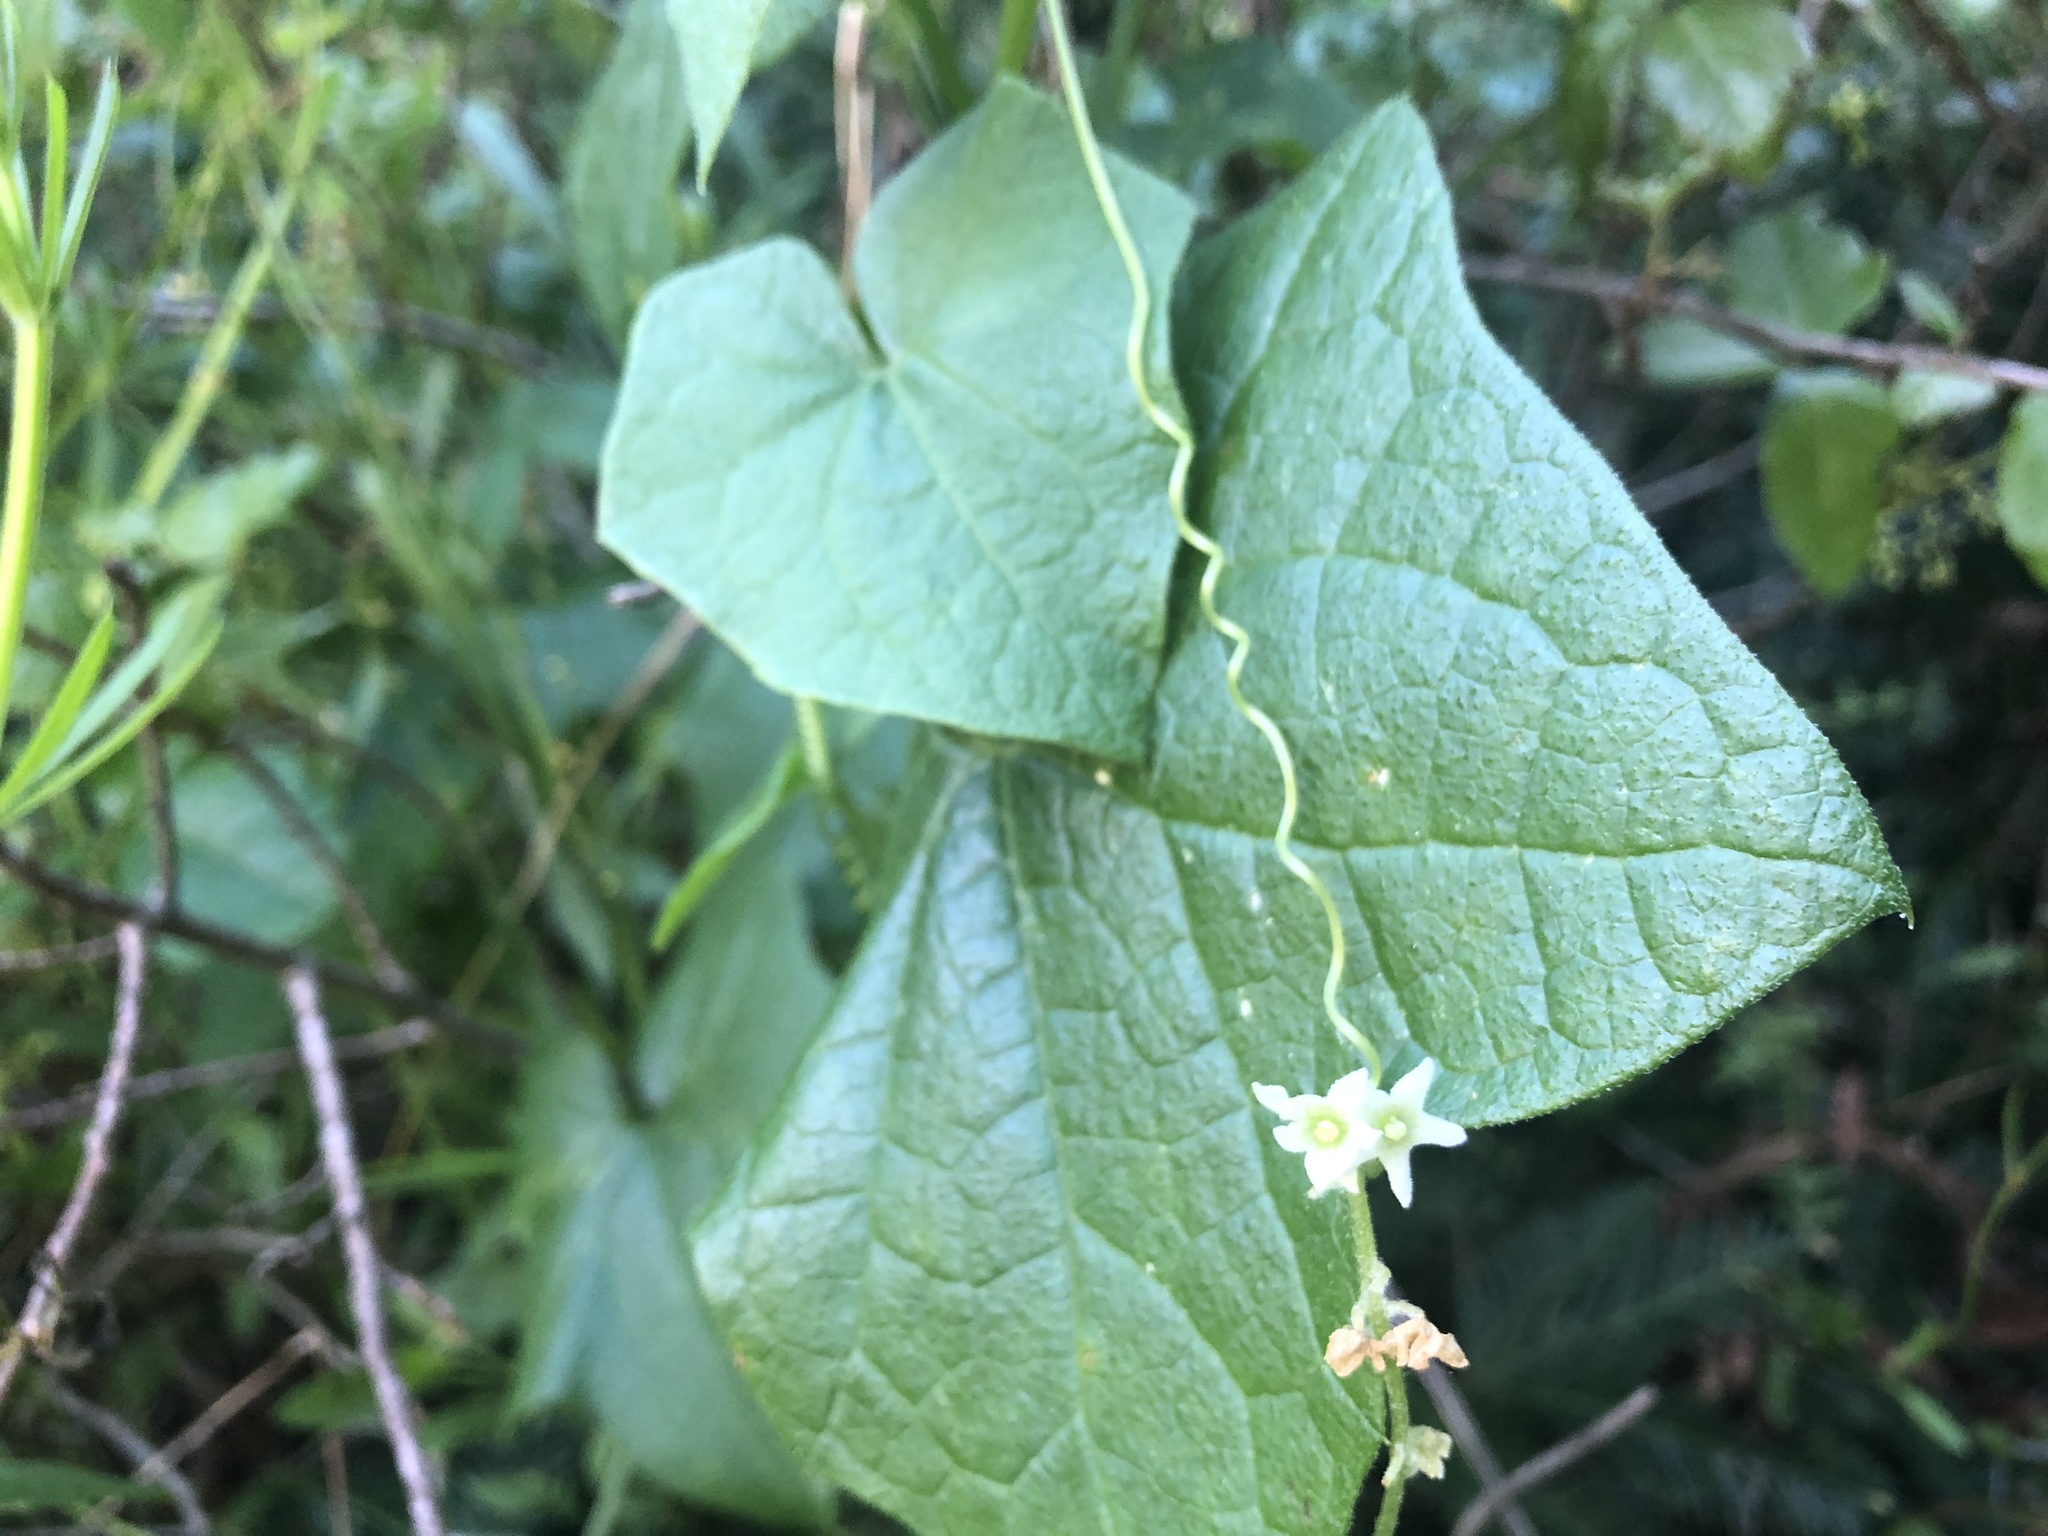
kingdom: Plantae
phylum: Tracheophyta
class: Magnoliopsida
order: Cucurbitales
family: Cucurbitaceae
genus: Marah
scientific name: Marah fabacea
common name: California manroot
